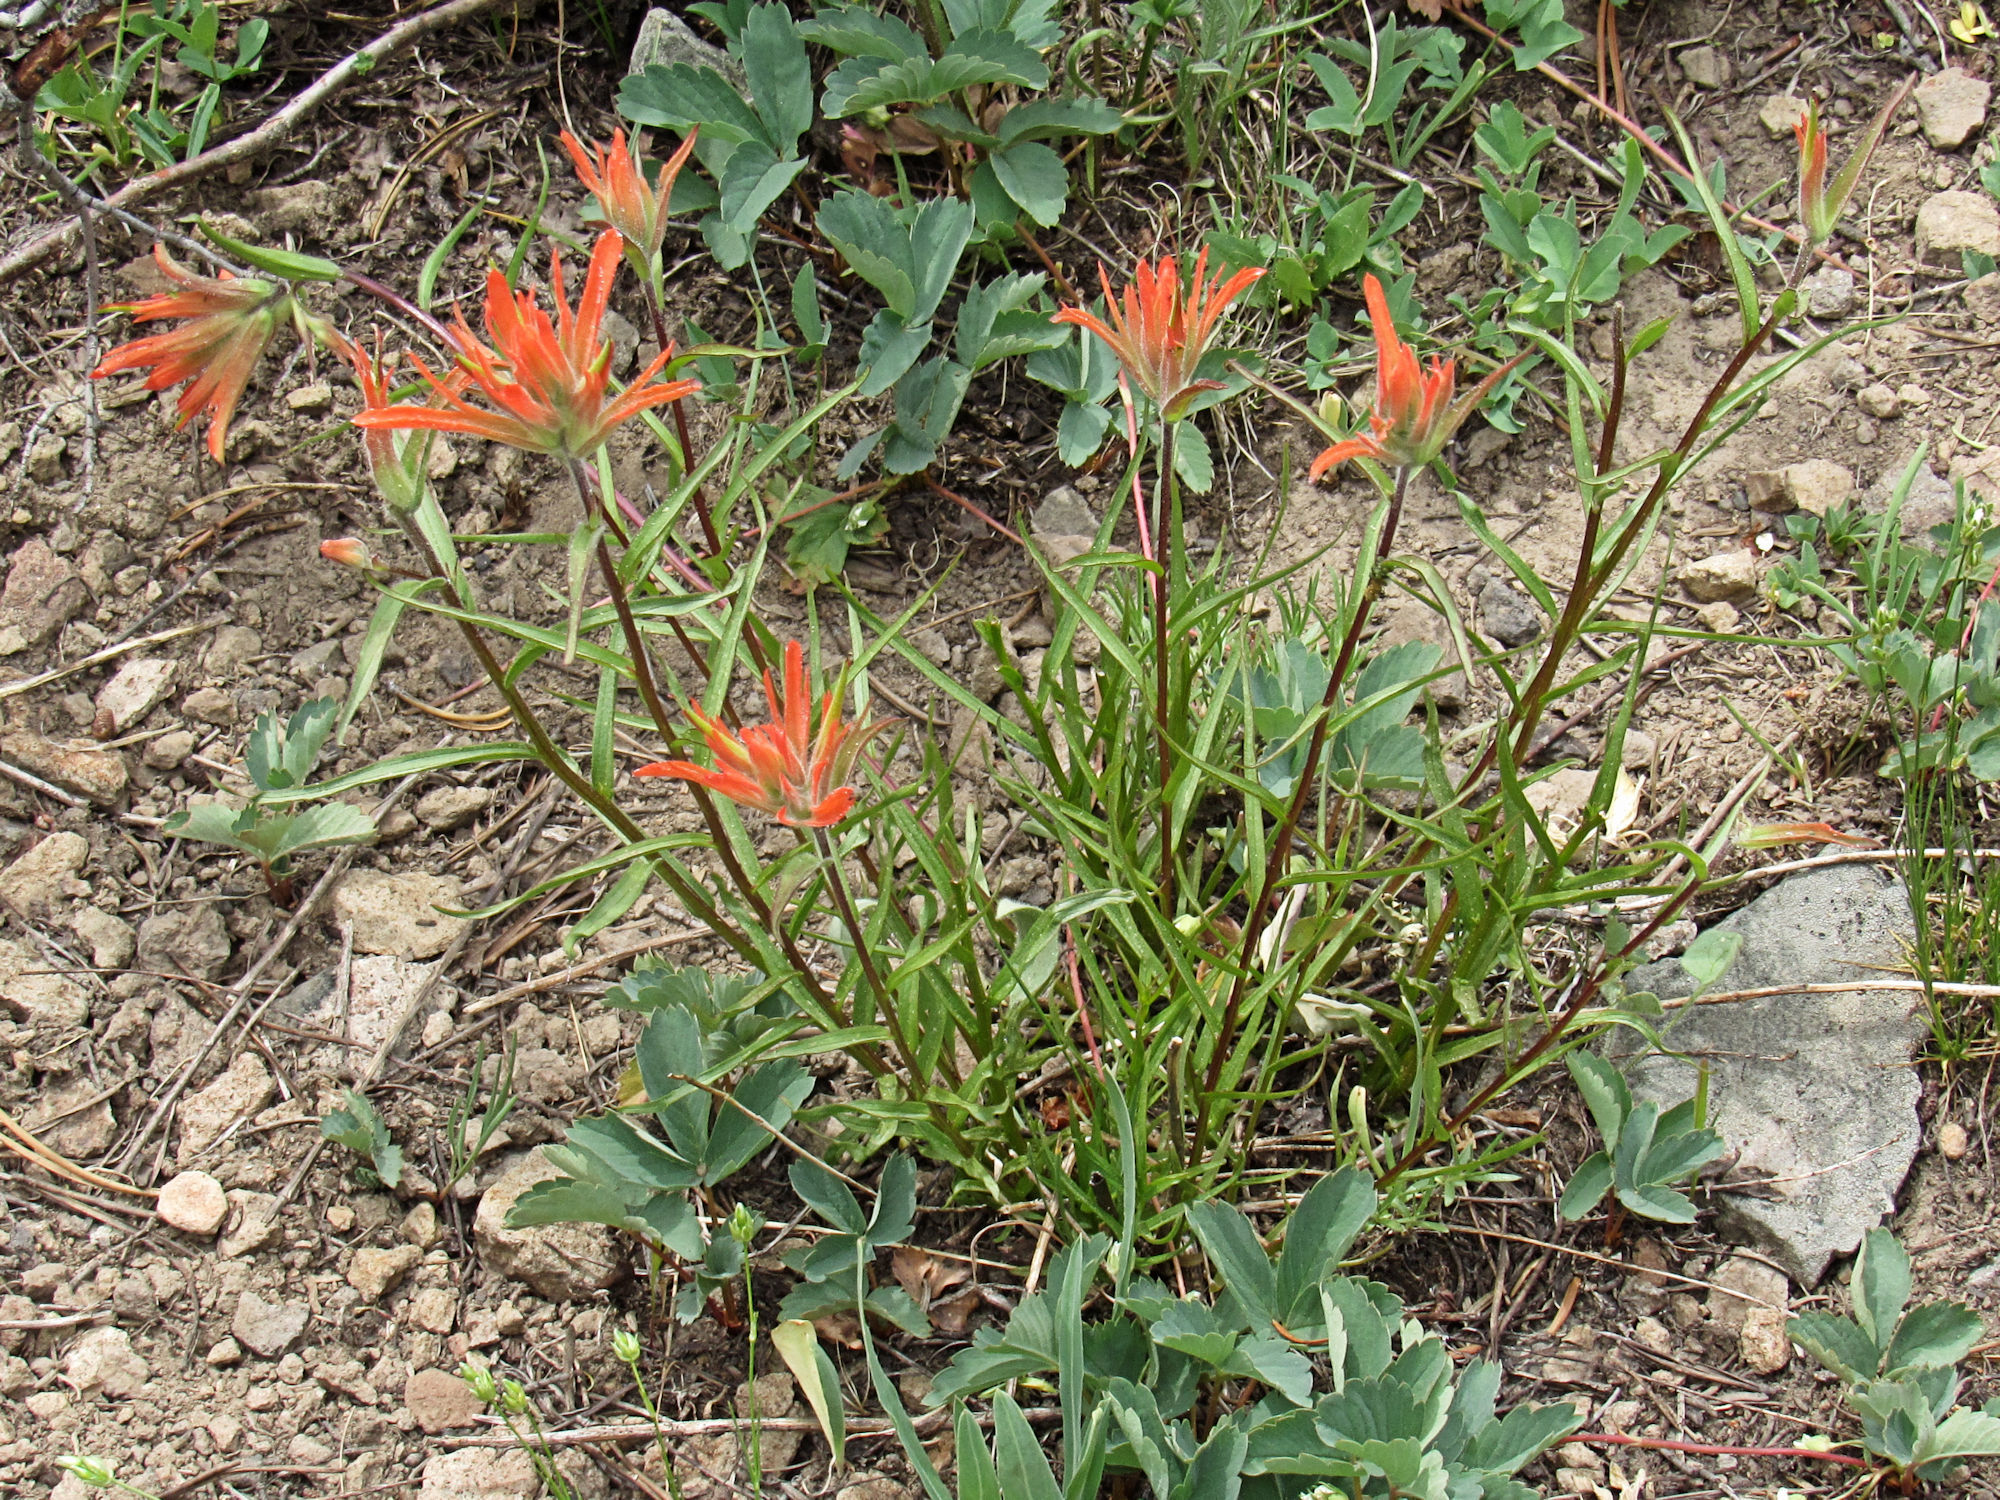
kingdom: Plantae
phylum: Tracheophyta
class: Magnoliopsida
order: Lamiales
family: Orobanchaceae
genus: Castilleja
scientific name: Castilleja miniata
